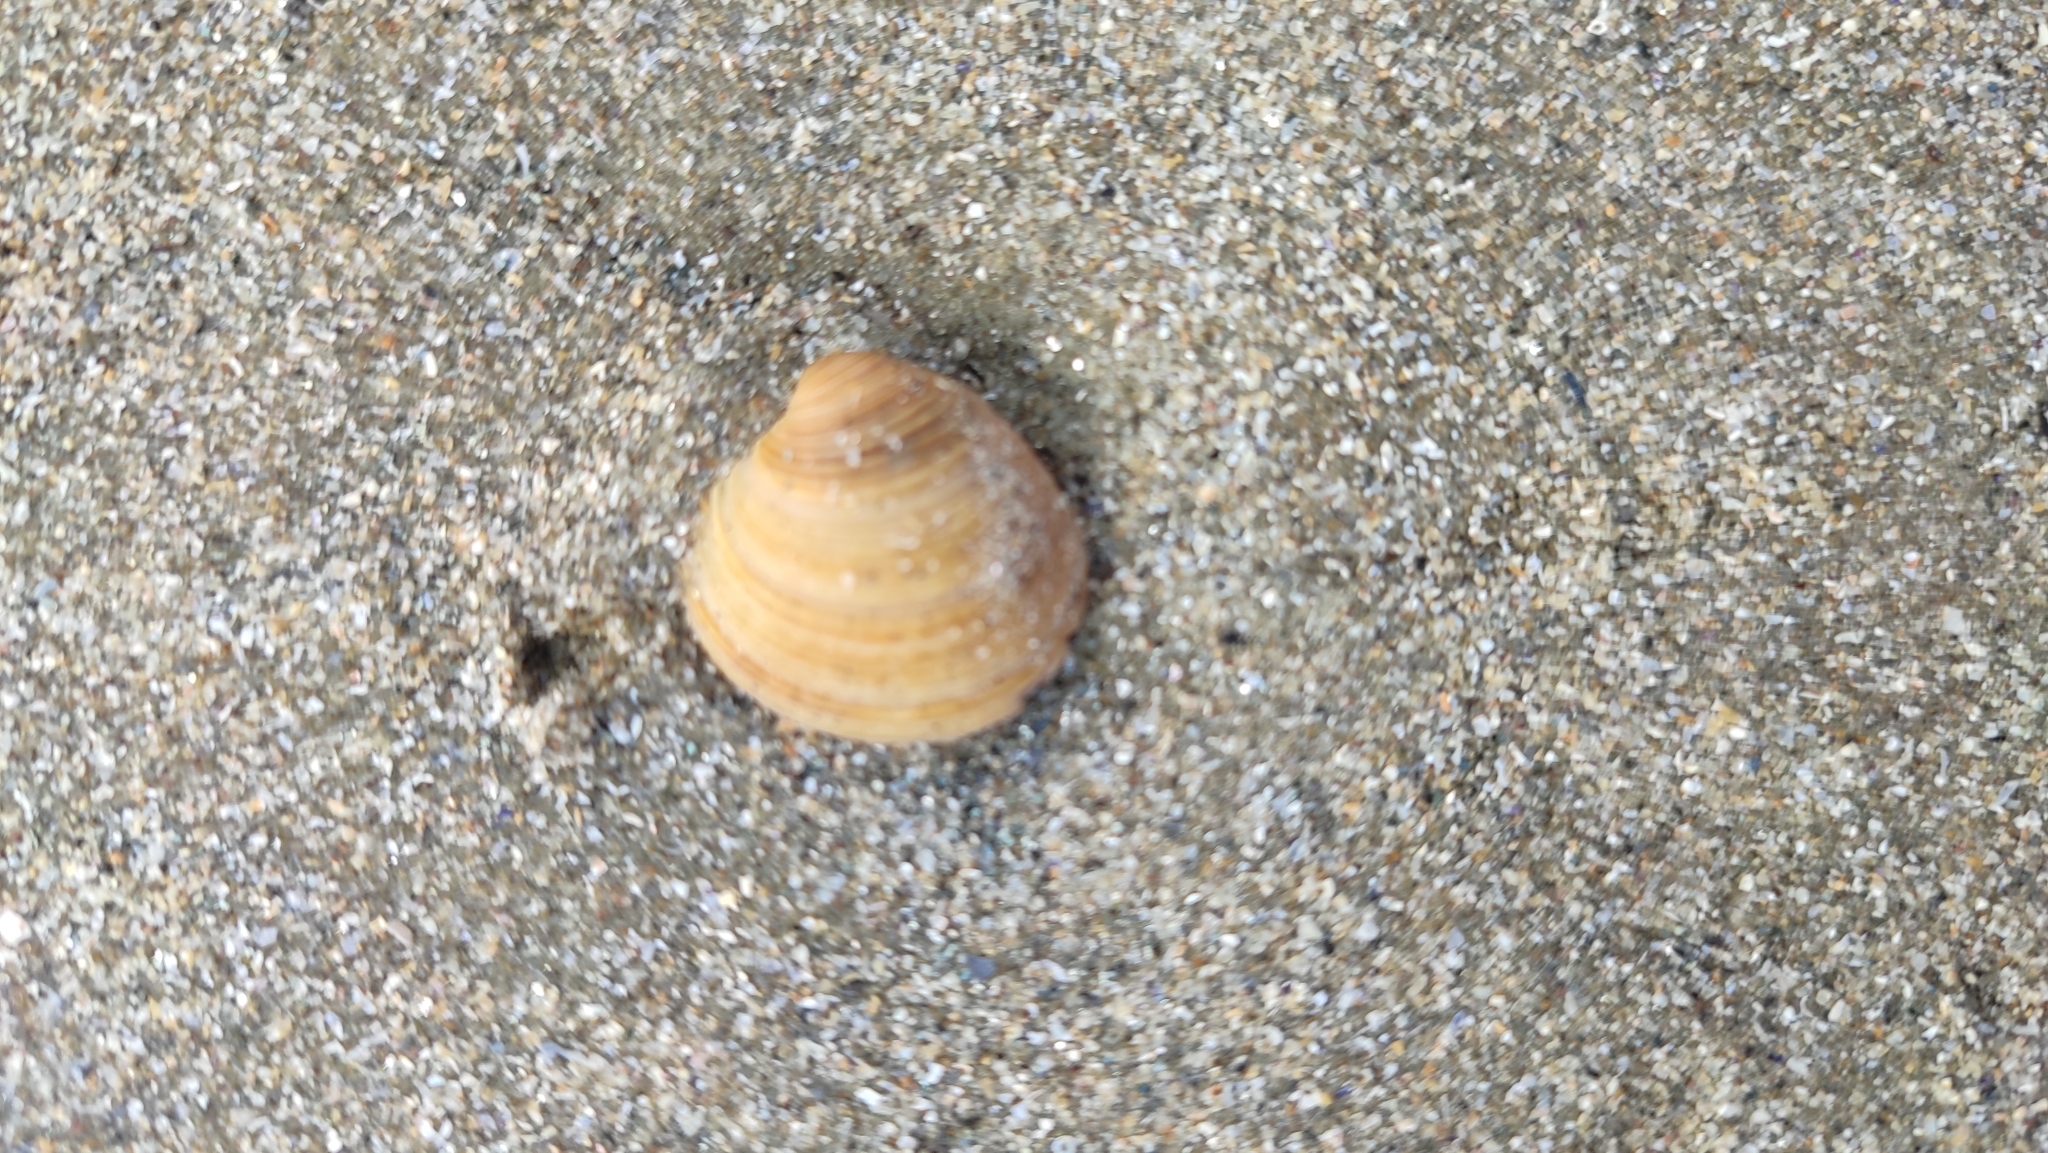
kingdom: Animalia
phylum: Mollusca
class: Bivalvia
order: Venerida
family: Veneridae
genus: Chamelea
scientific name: Chamelea gallina
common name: Chicken venus
